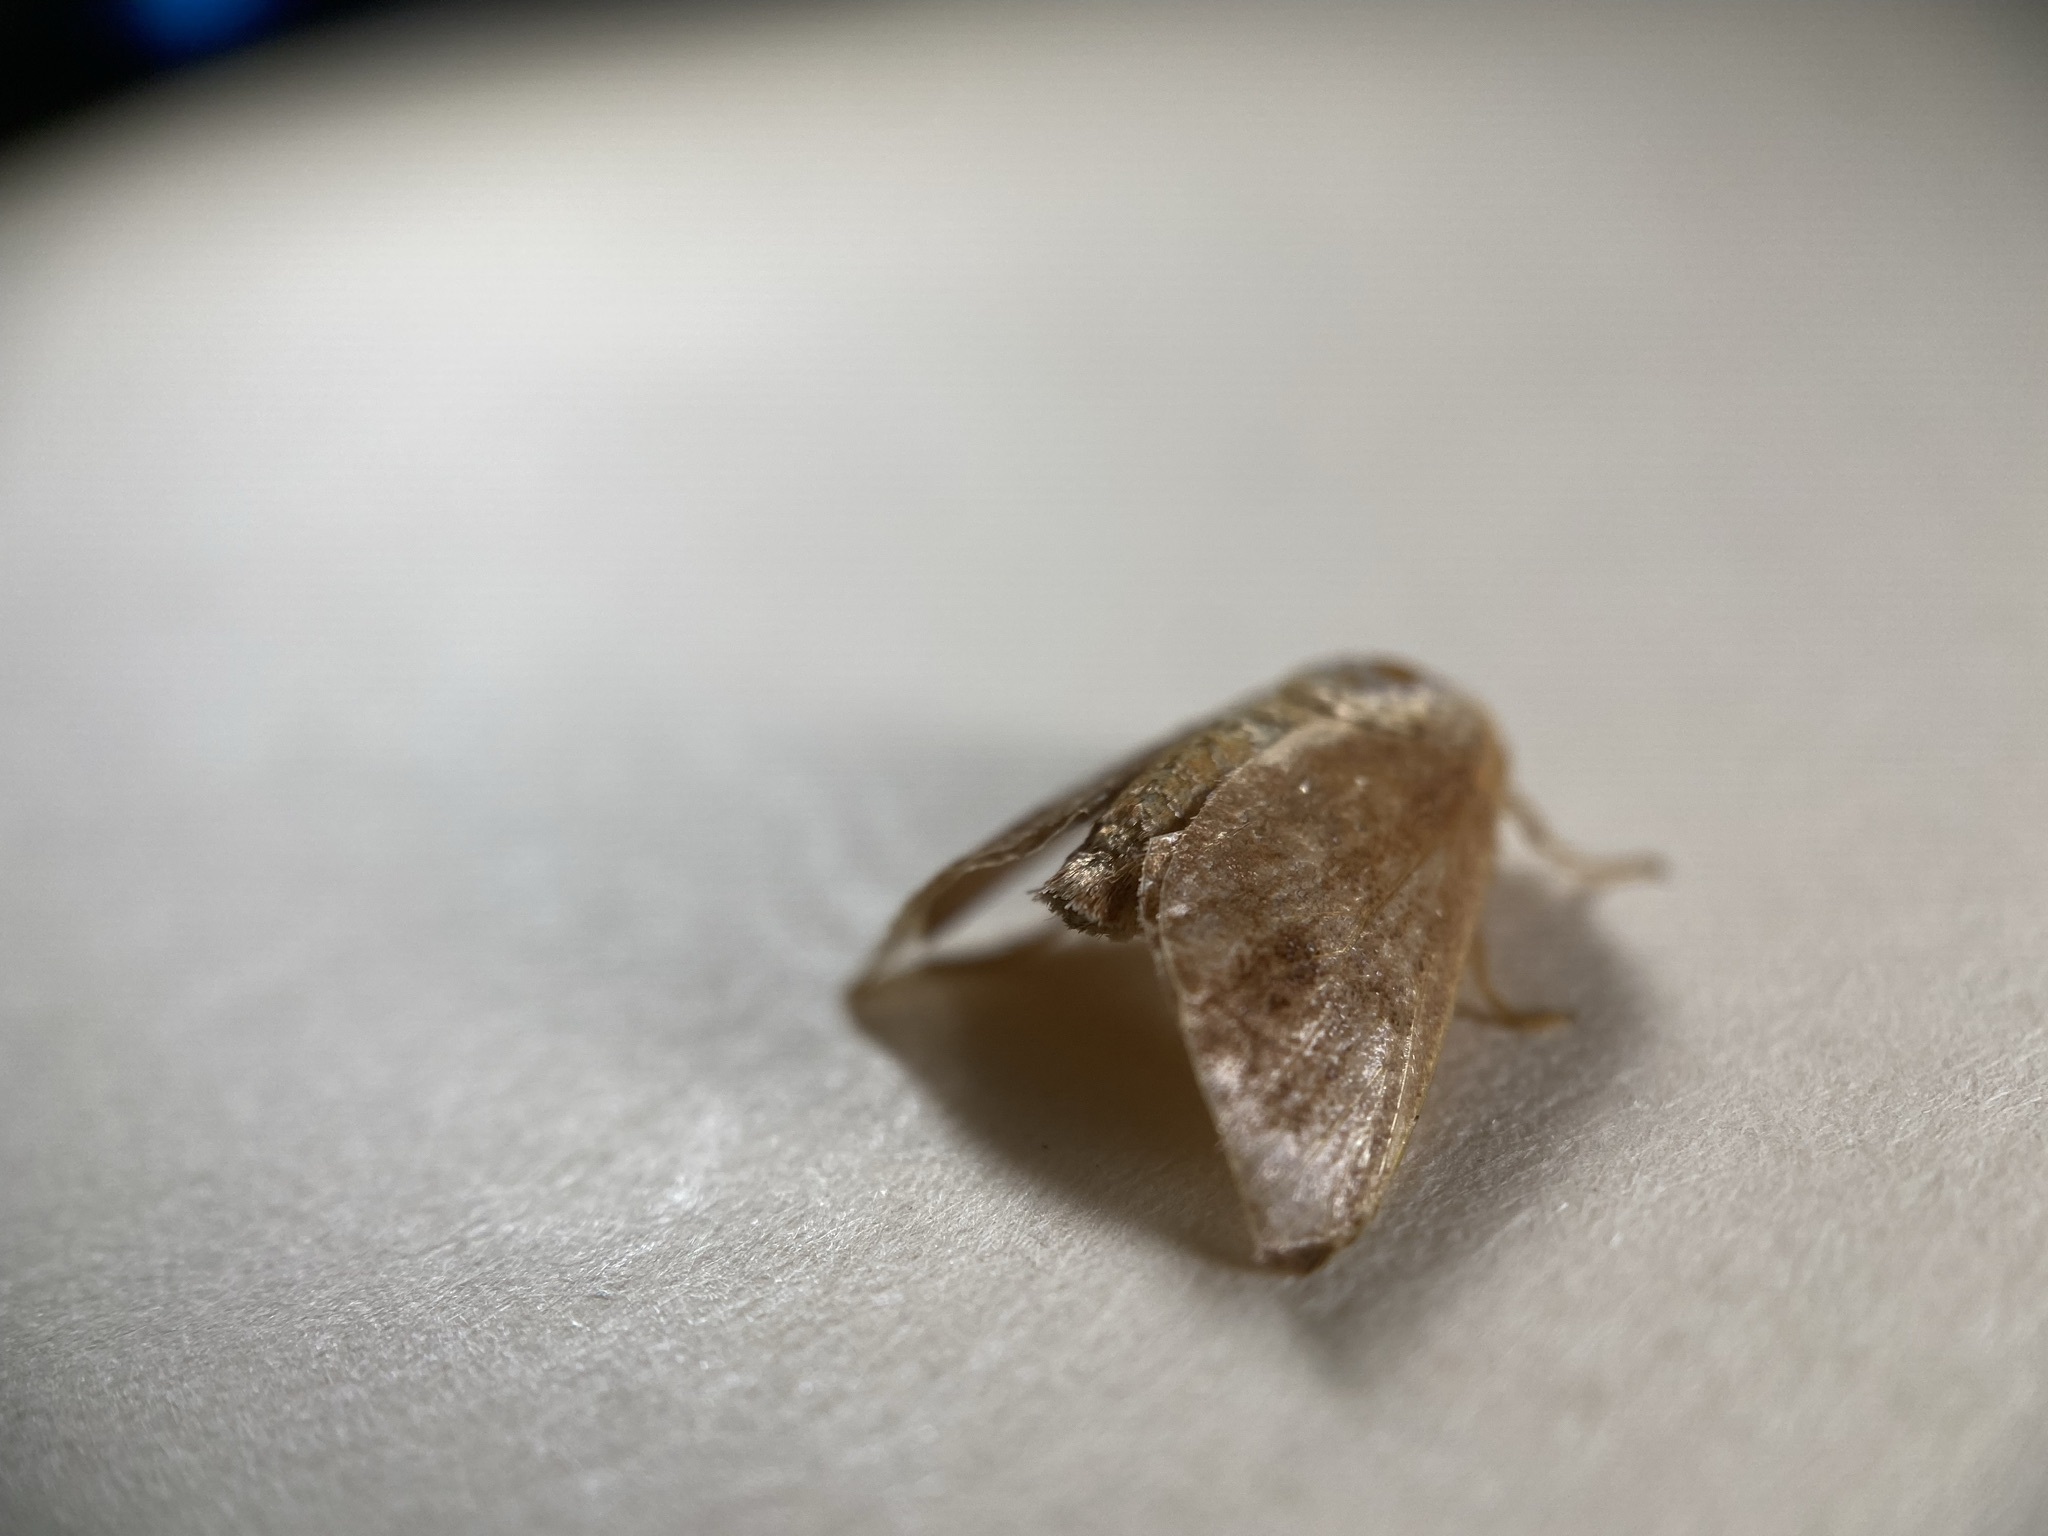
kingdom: Animalia
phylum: Arthropoda
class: Insecta
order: Lepidoptera
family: Limacodidae
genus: Adoneta
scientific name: Adoneta spinuloides
